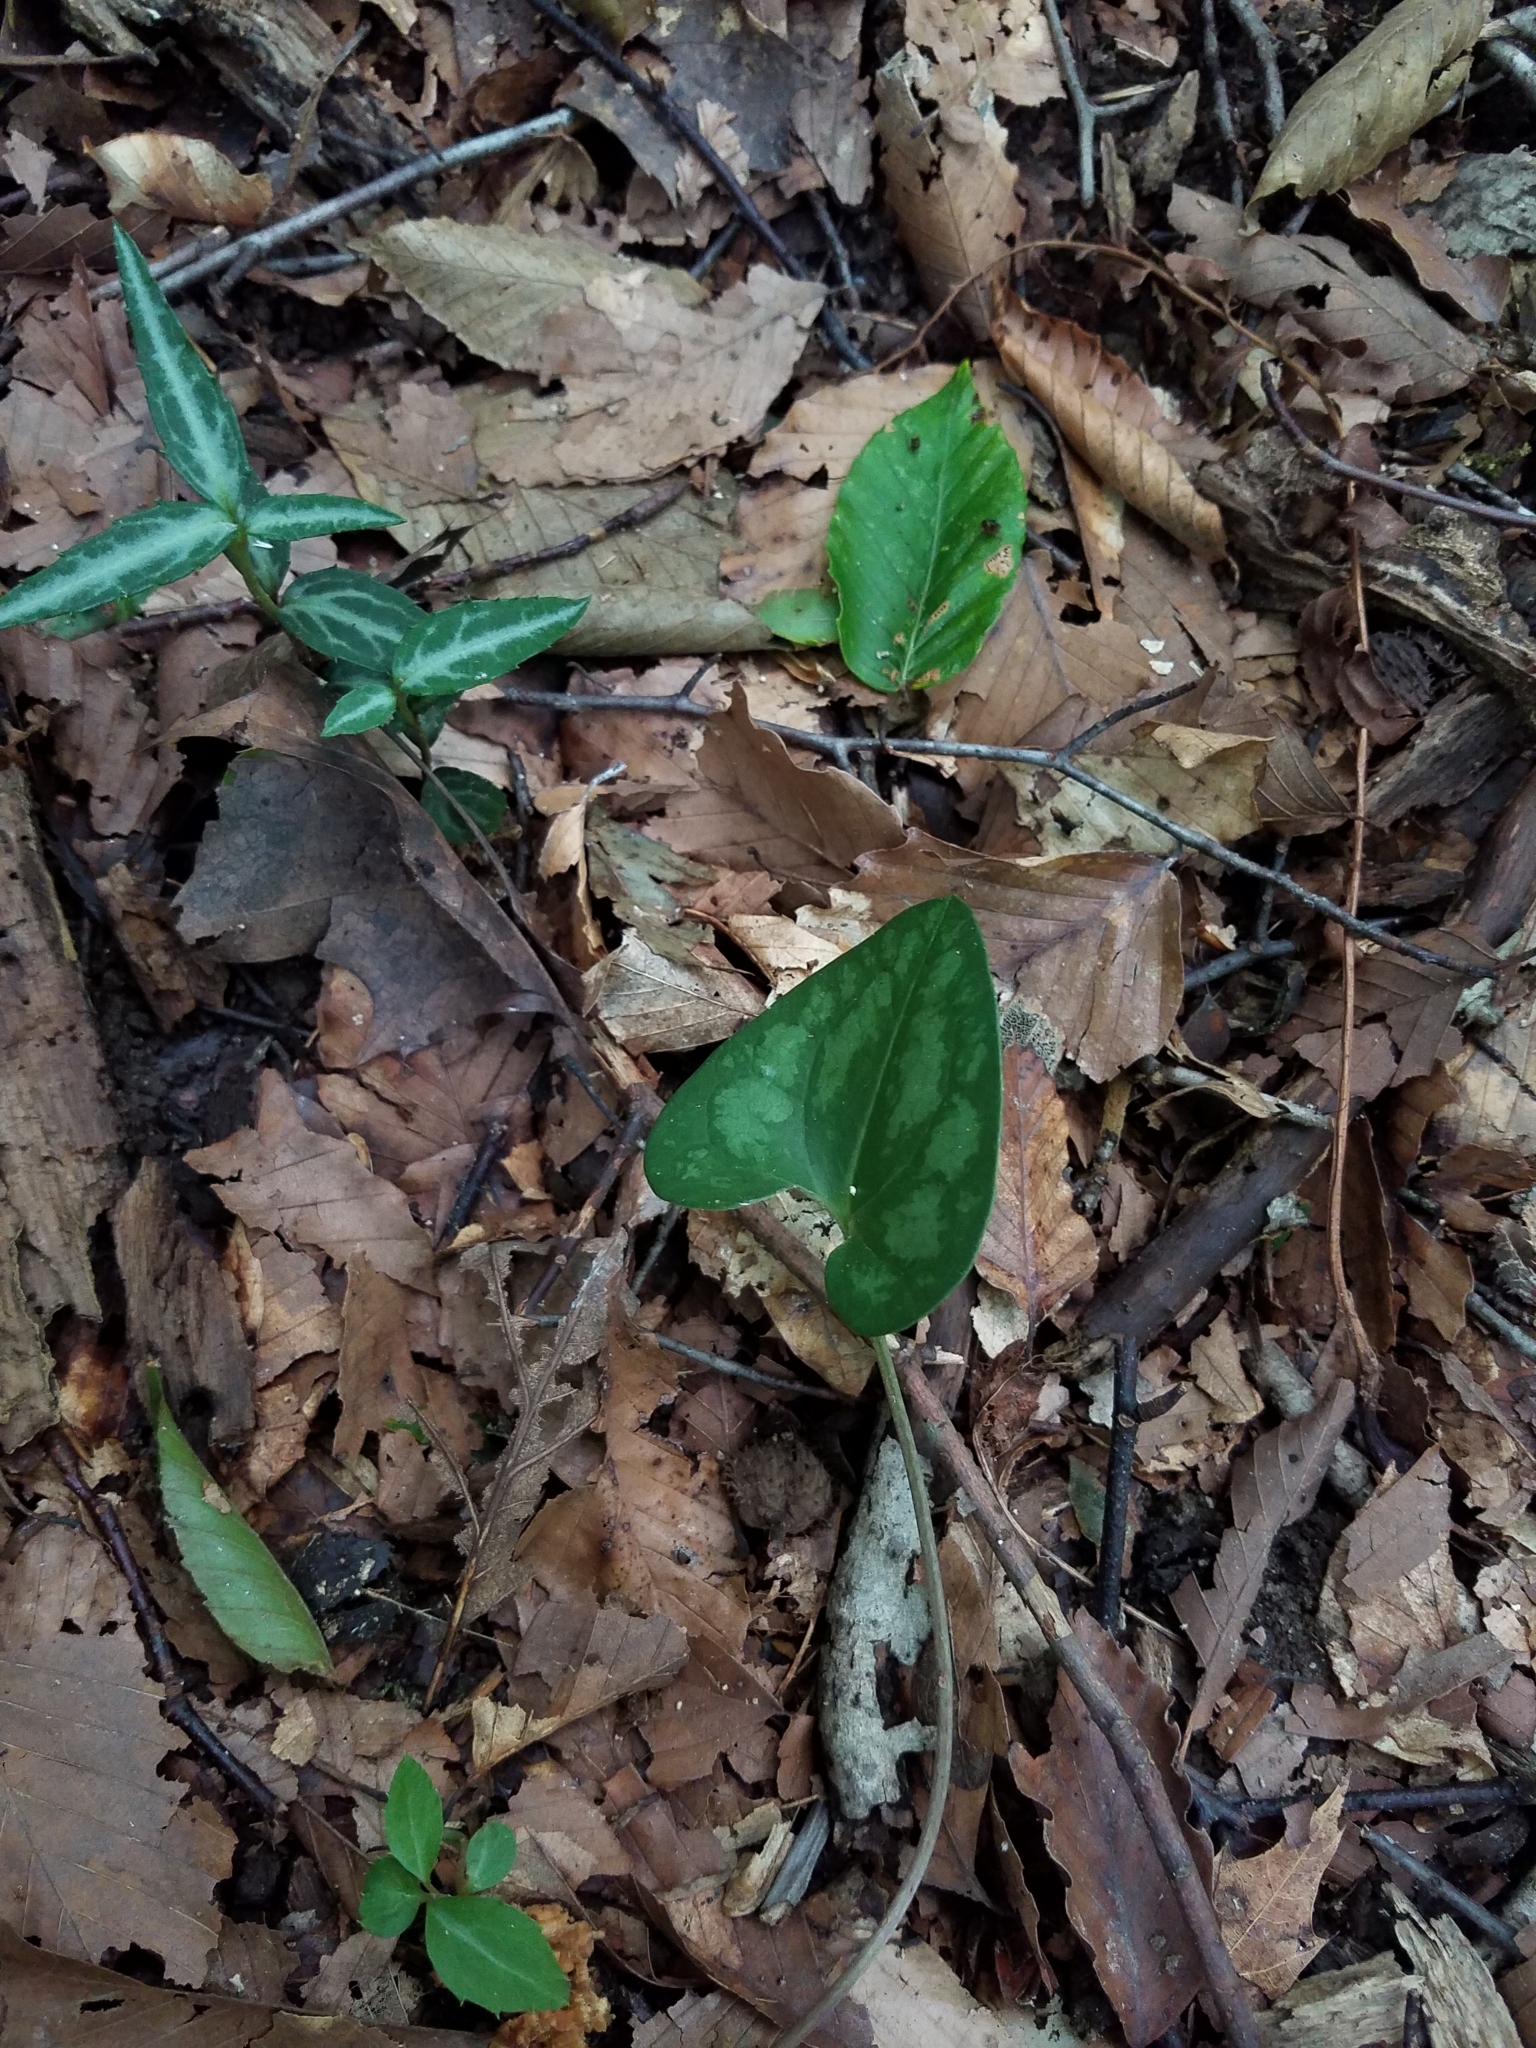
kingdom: Plantae
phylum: Tracheophyta
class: Magnoliopsida
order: Piperales
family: Aristolochiaceae
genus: Hexastylis
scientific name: Hexastylis arifolia
